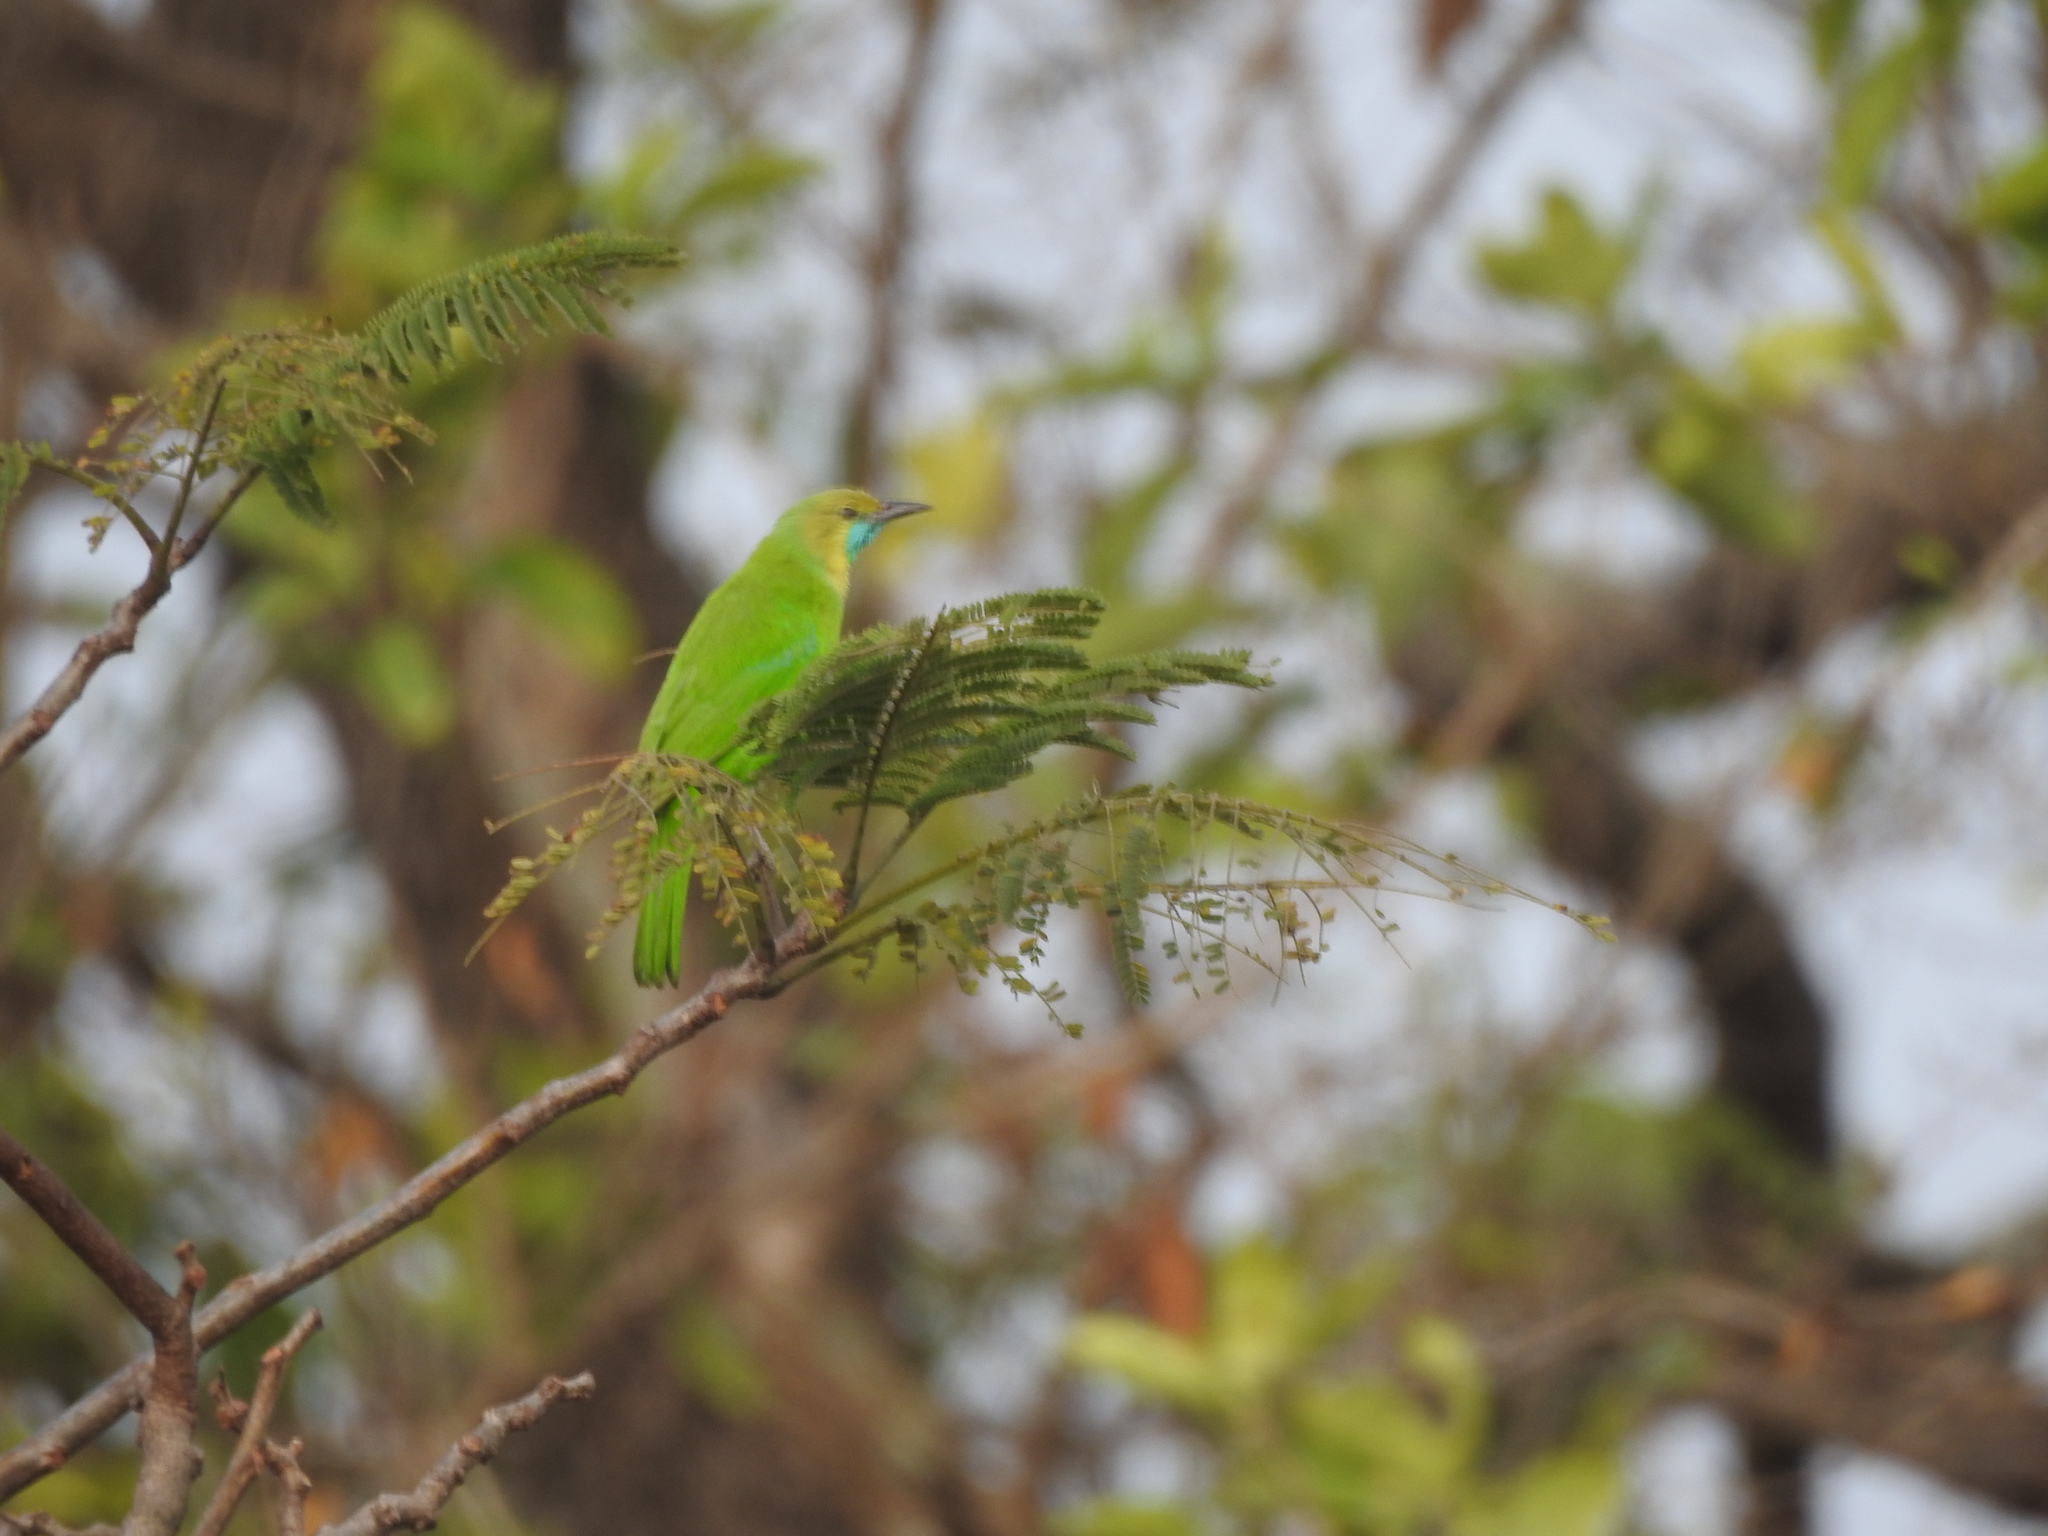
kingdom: Animalia
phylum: Chordata
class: Aves
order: Passeriformes
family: Chloropseidae
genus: Chloropsis
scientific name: Chloropsis jerdoni
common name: Jerdon's leafbird
